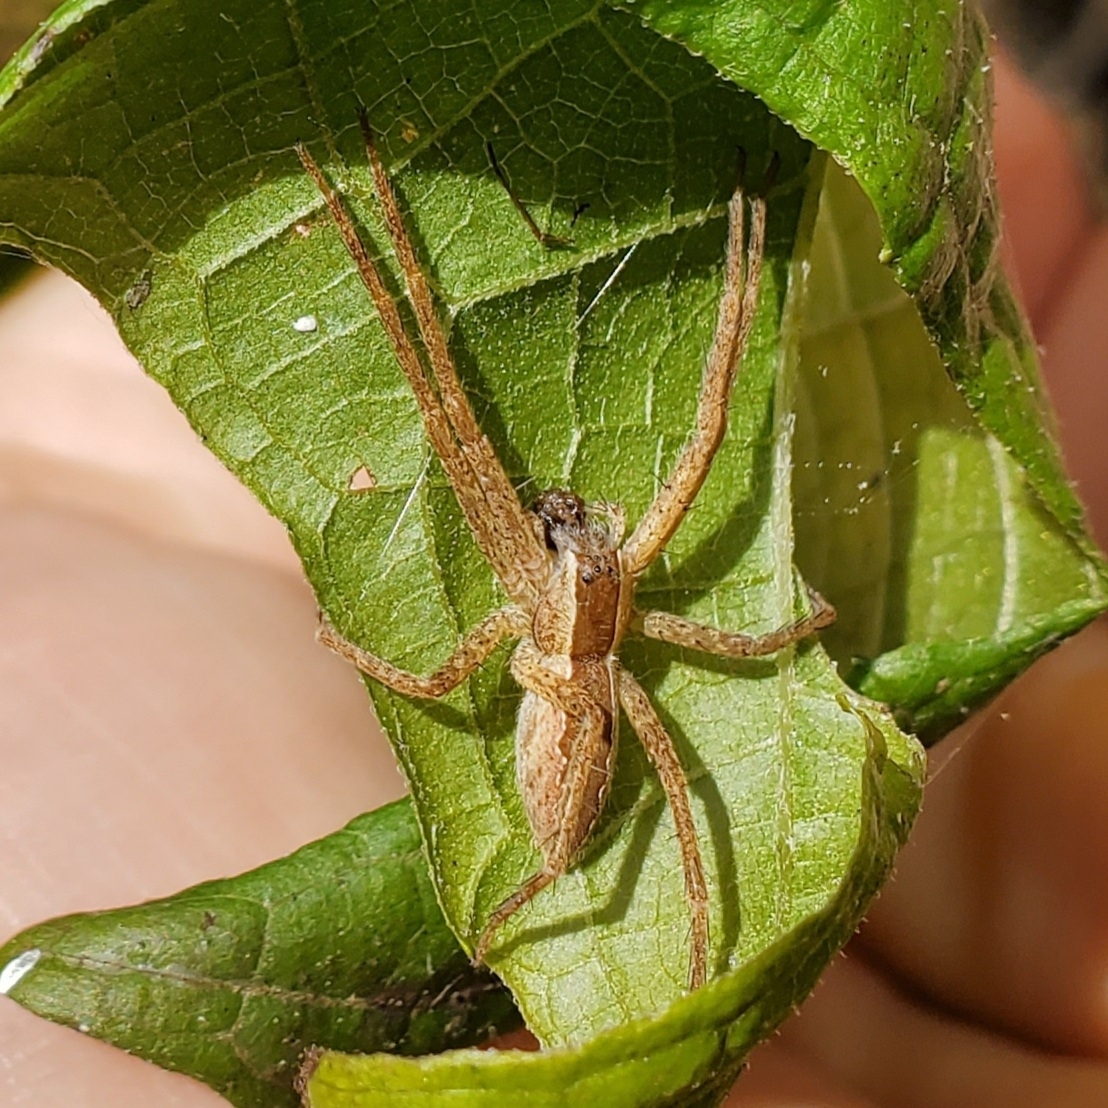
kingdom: Animalia
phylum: Arthropoda
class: Arachnida
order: Araneae
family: Pisauridae
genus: Pisaurina
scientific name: Pisaurina mira
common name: American nursery web spider
